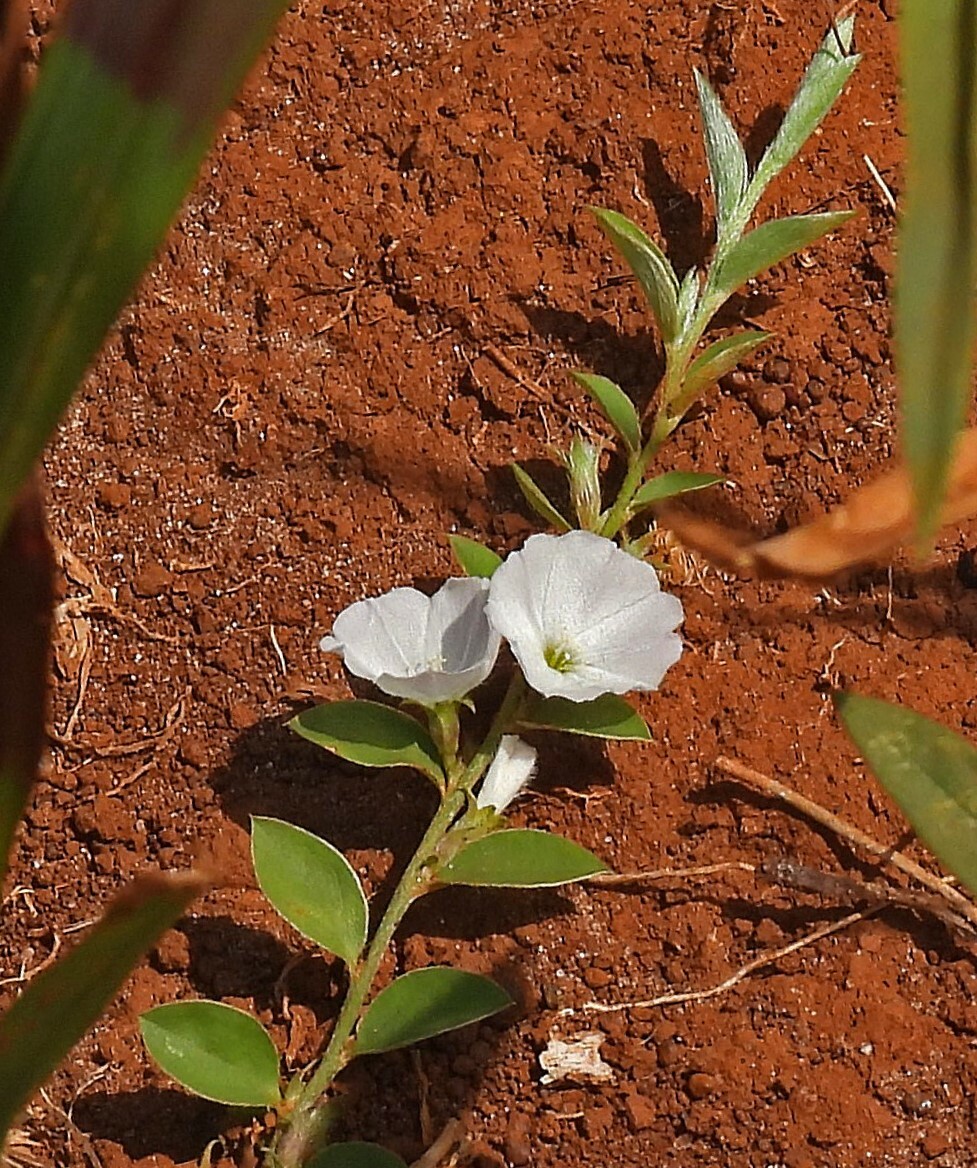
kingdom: Plantae
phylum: Tracheophyta
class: Magnoliopsida
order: Solanales
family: Convolvulaceae
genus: Evolvulus
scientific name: Evolvulus tenuis
